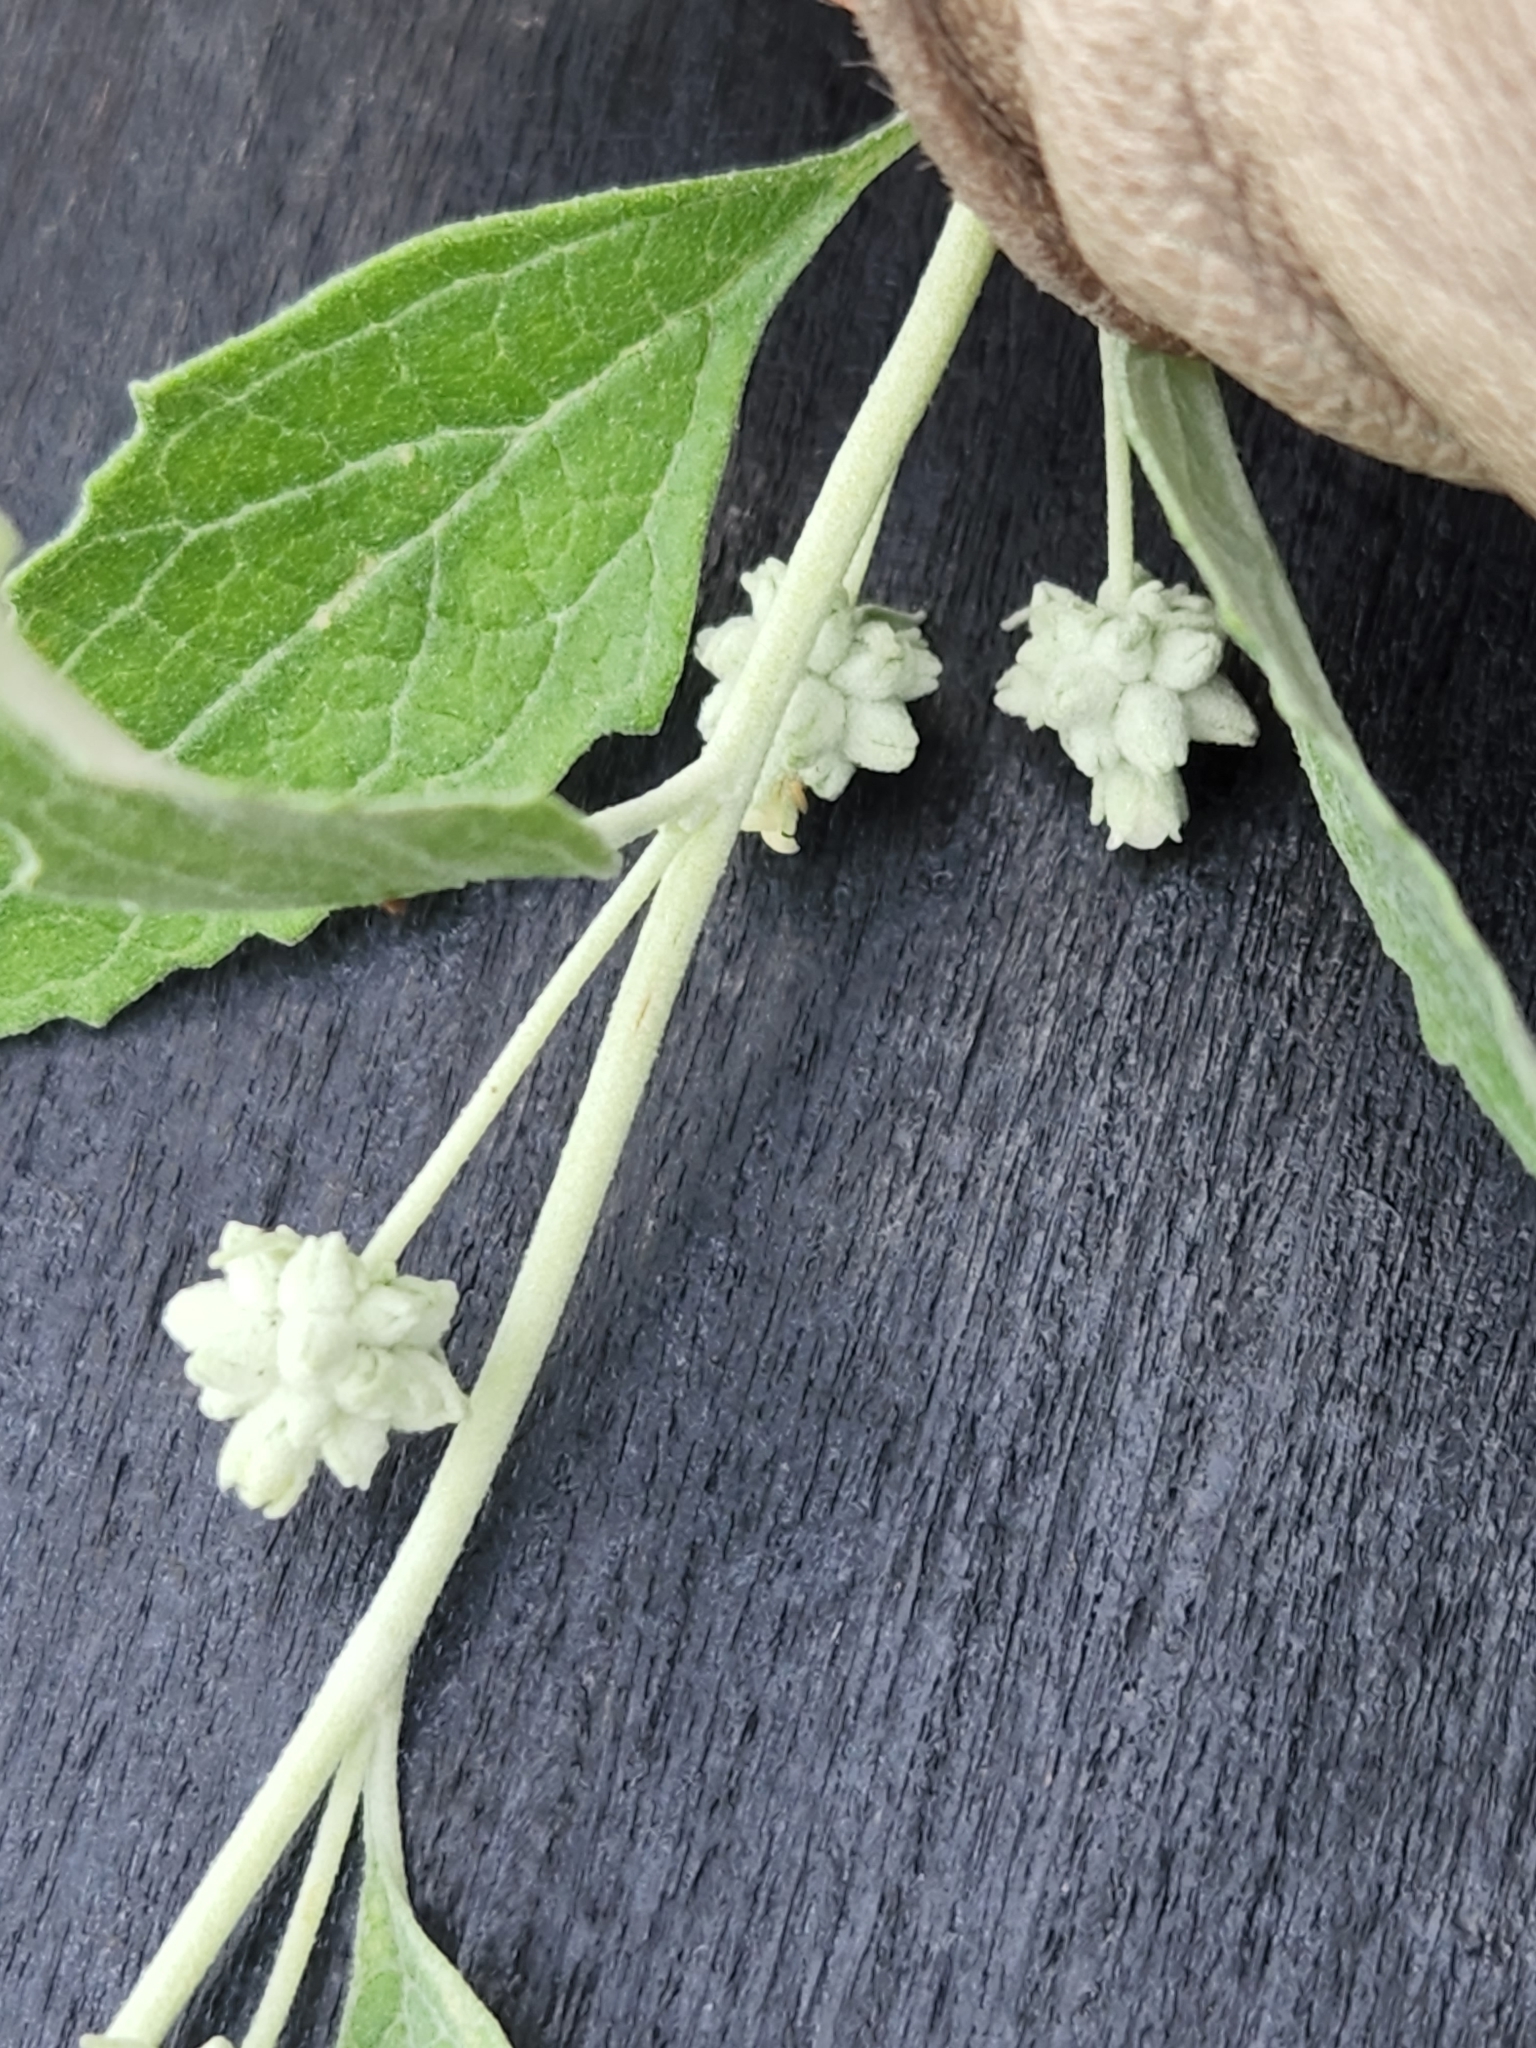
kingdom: Plantae
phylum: Tracheophyta
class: Magnoliopsida
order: Lamiales
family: Scrophulariaceae
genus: Buddleja
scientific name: Buddleja racemosa
